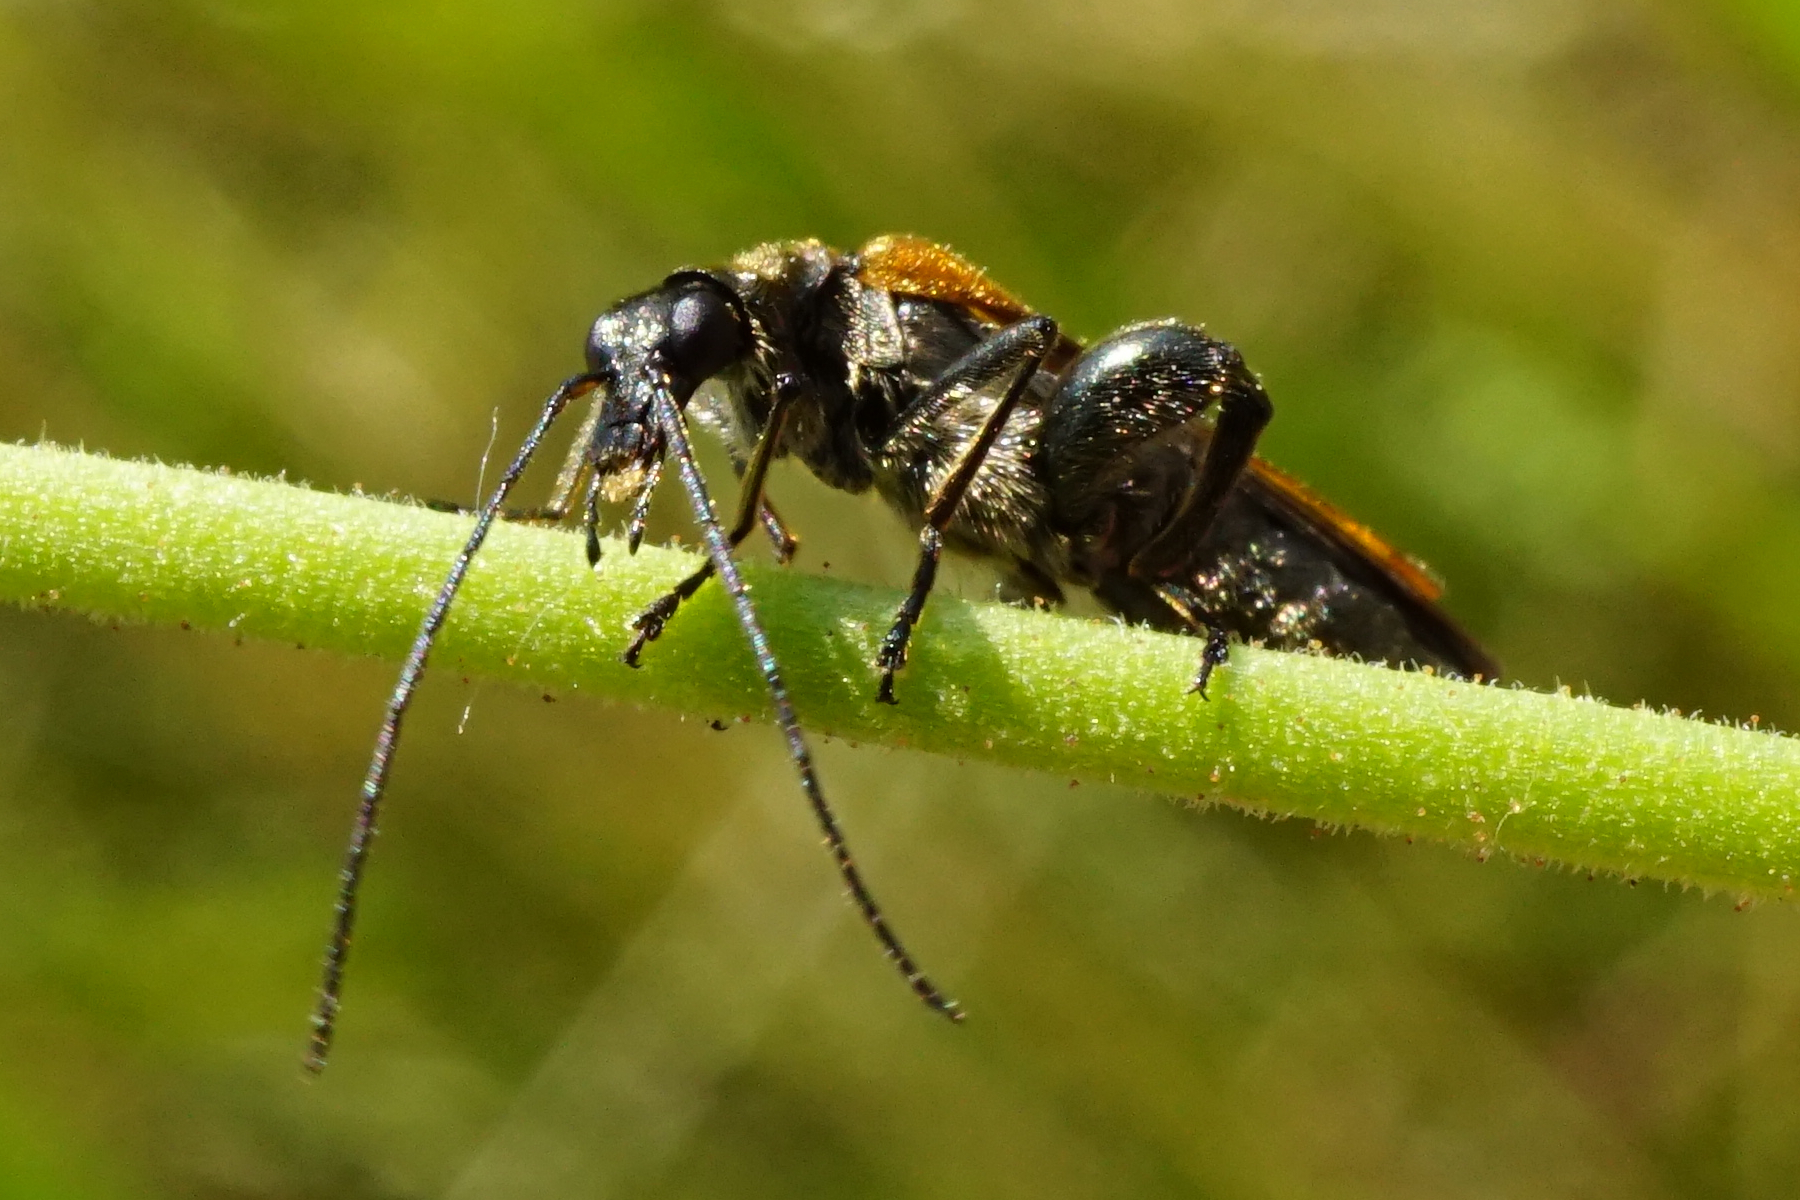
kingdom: Animalia
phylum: Arthropoda
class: Insecta
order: Coleoptera
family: Oedemeridae
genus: Oedemera
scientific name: Oedemera femorata
